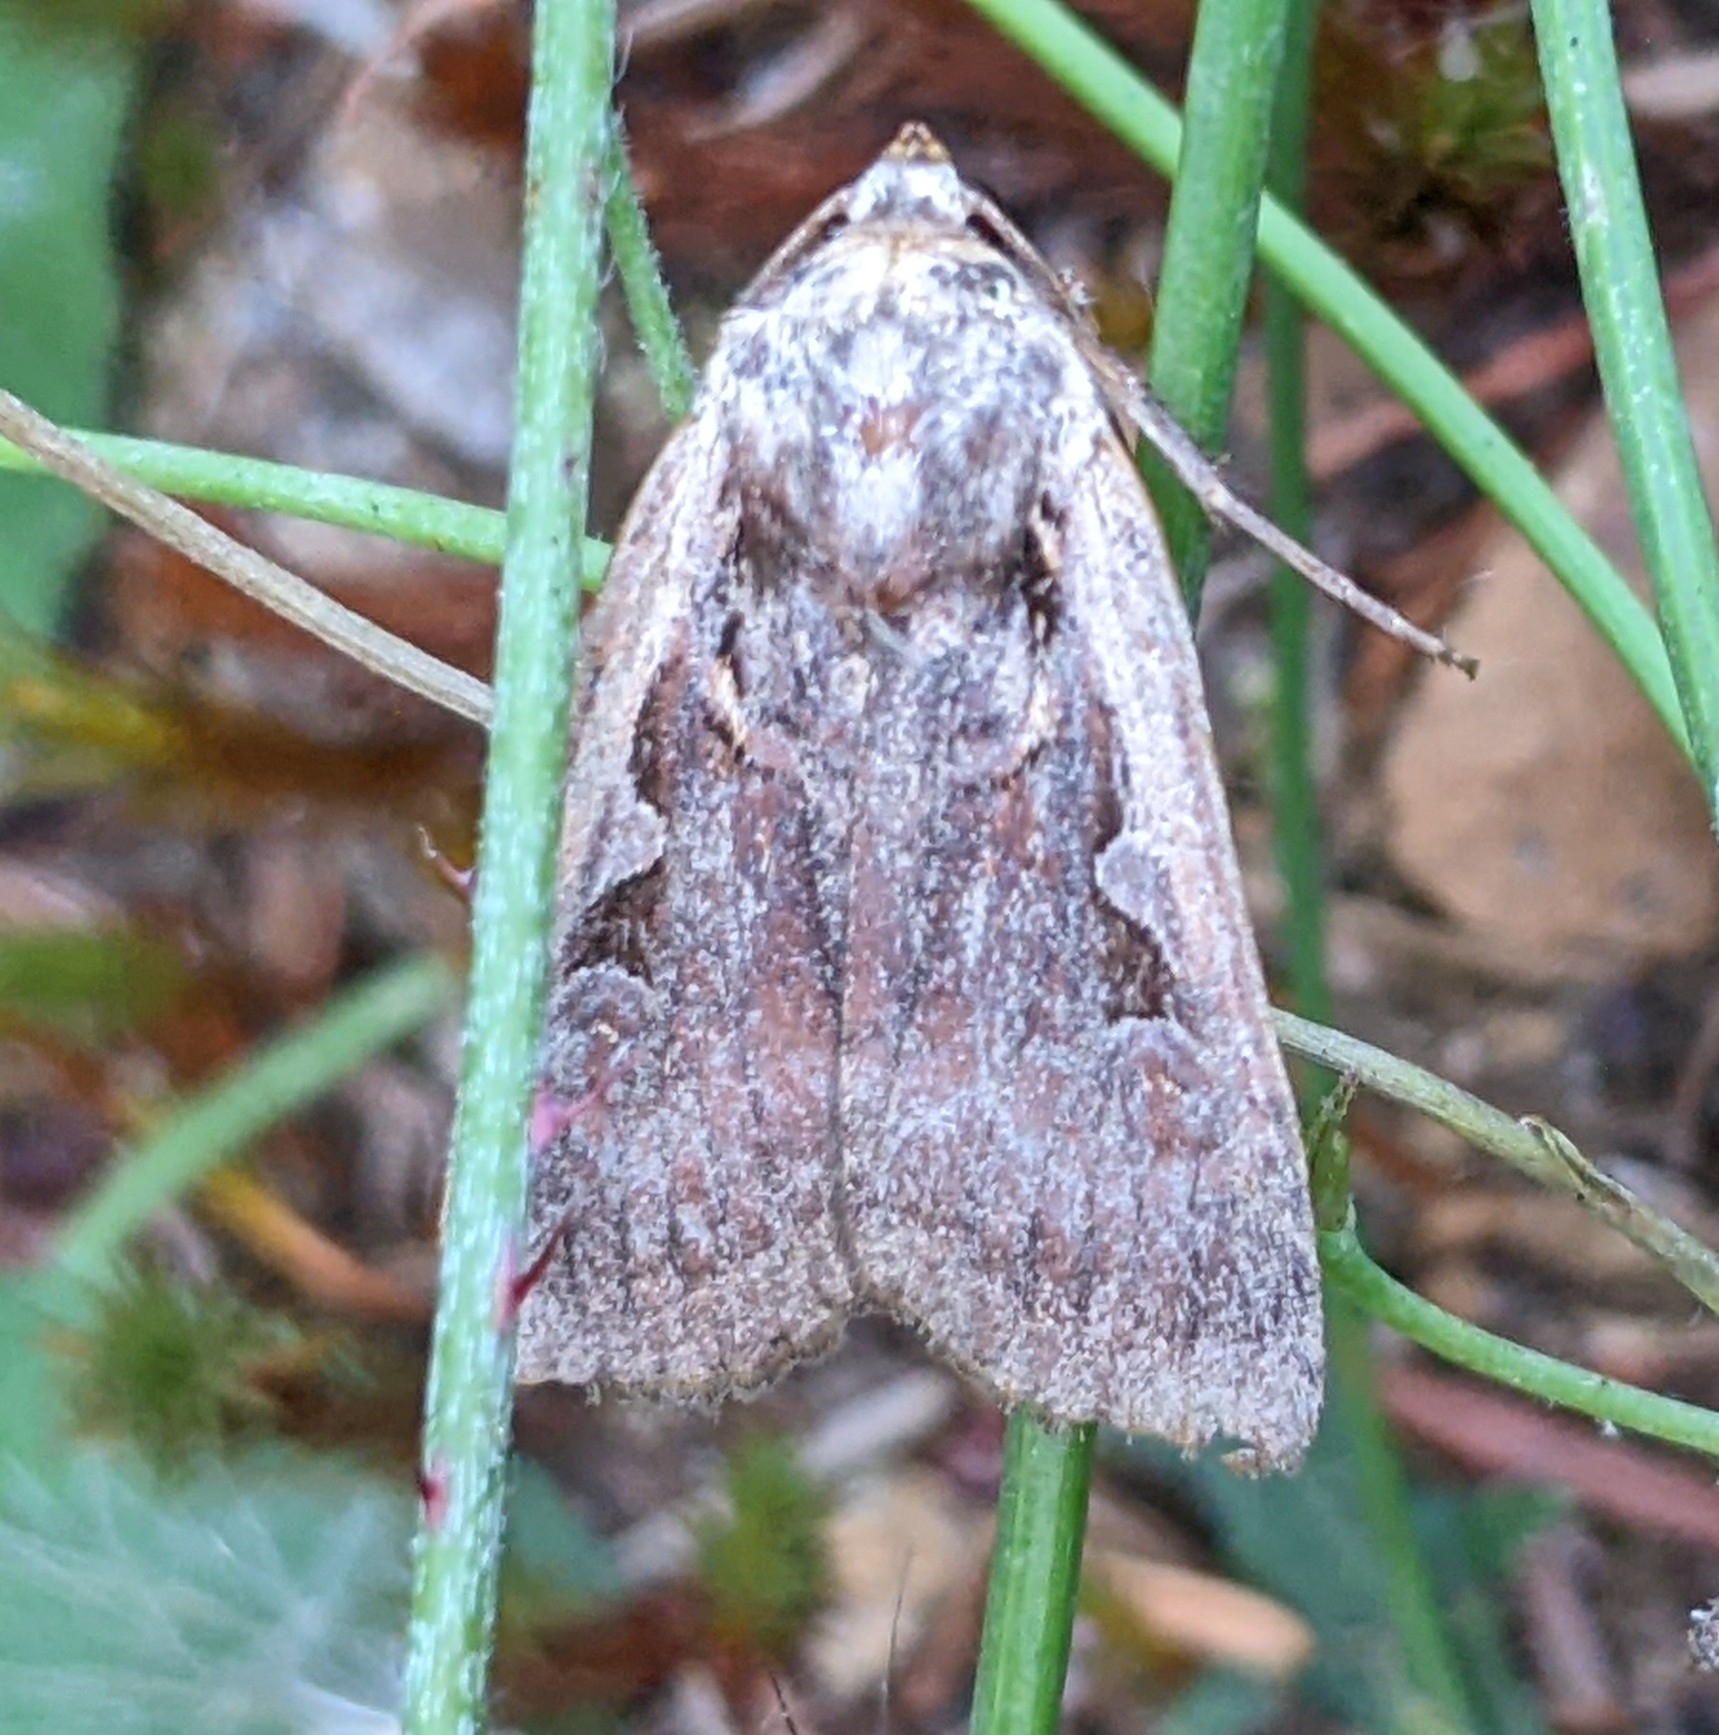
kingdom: Animalia
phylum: Arthropoda
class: Insecta
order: Lepidoptera
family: Noctuidae
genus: Parabagrotis
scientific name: Parabagrotis sulinaris
